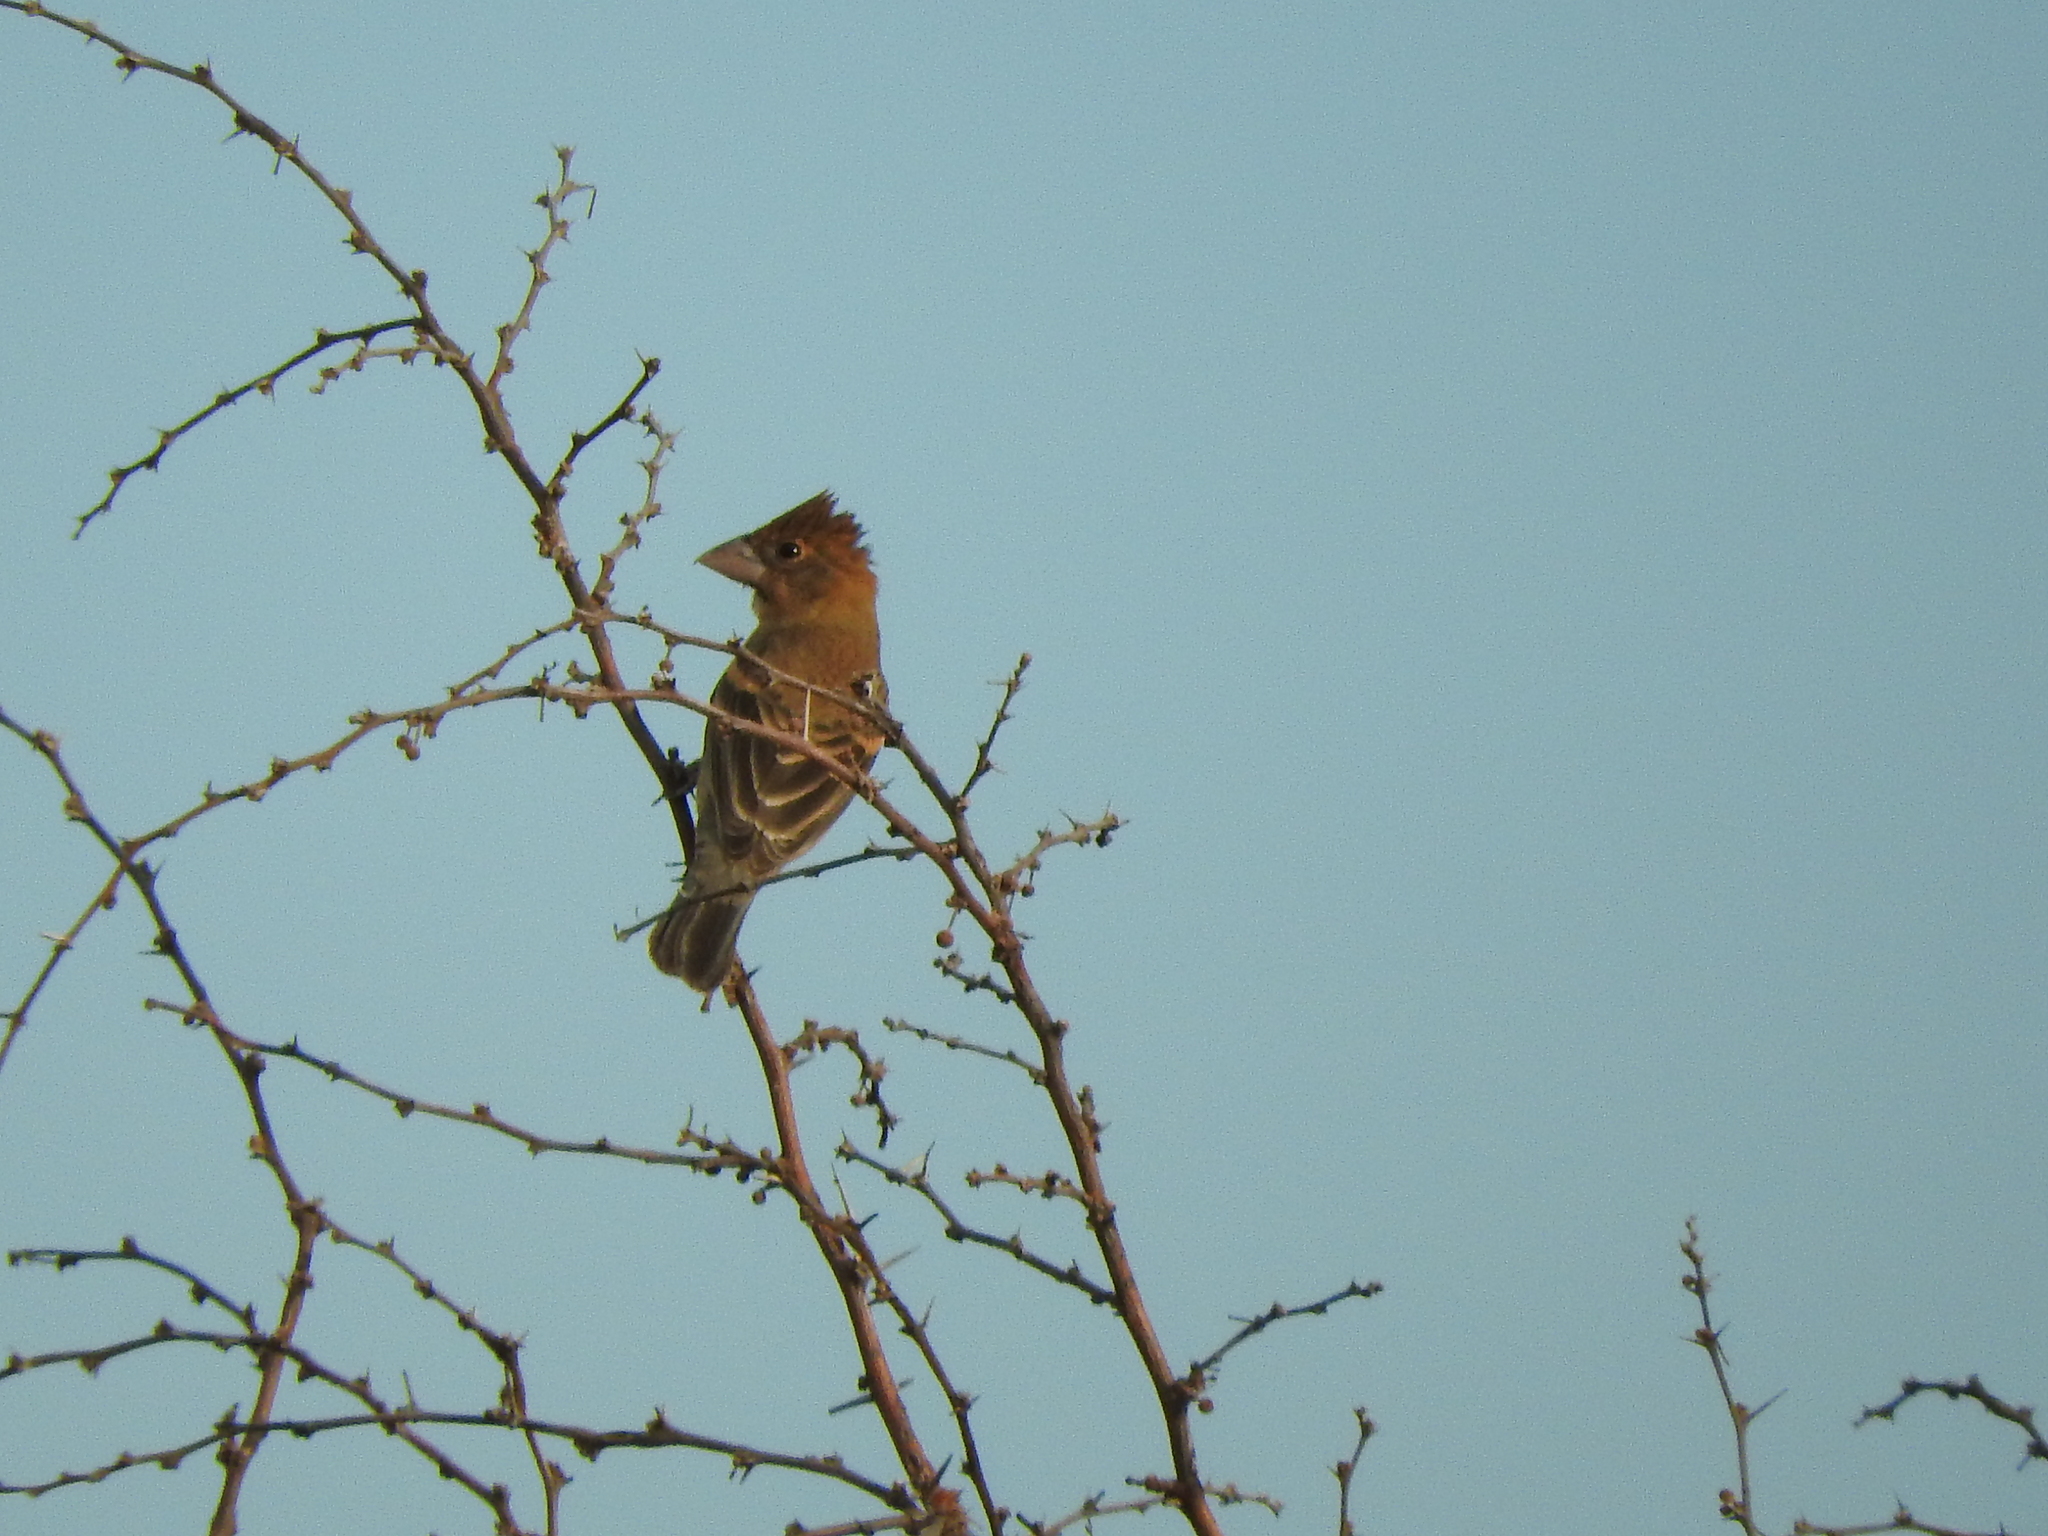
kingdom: Animalia
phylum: Chordata
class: Aves
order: Passeriformes
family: Cardinalidae
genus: Passerina
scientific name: Passerina caerulea
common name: Blue grosbeak
